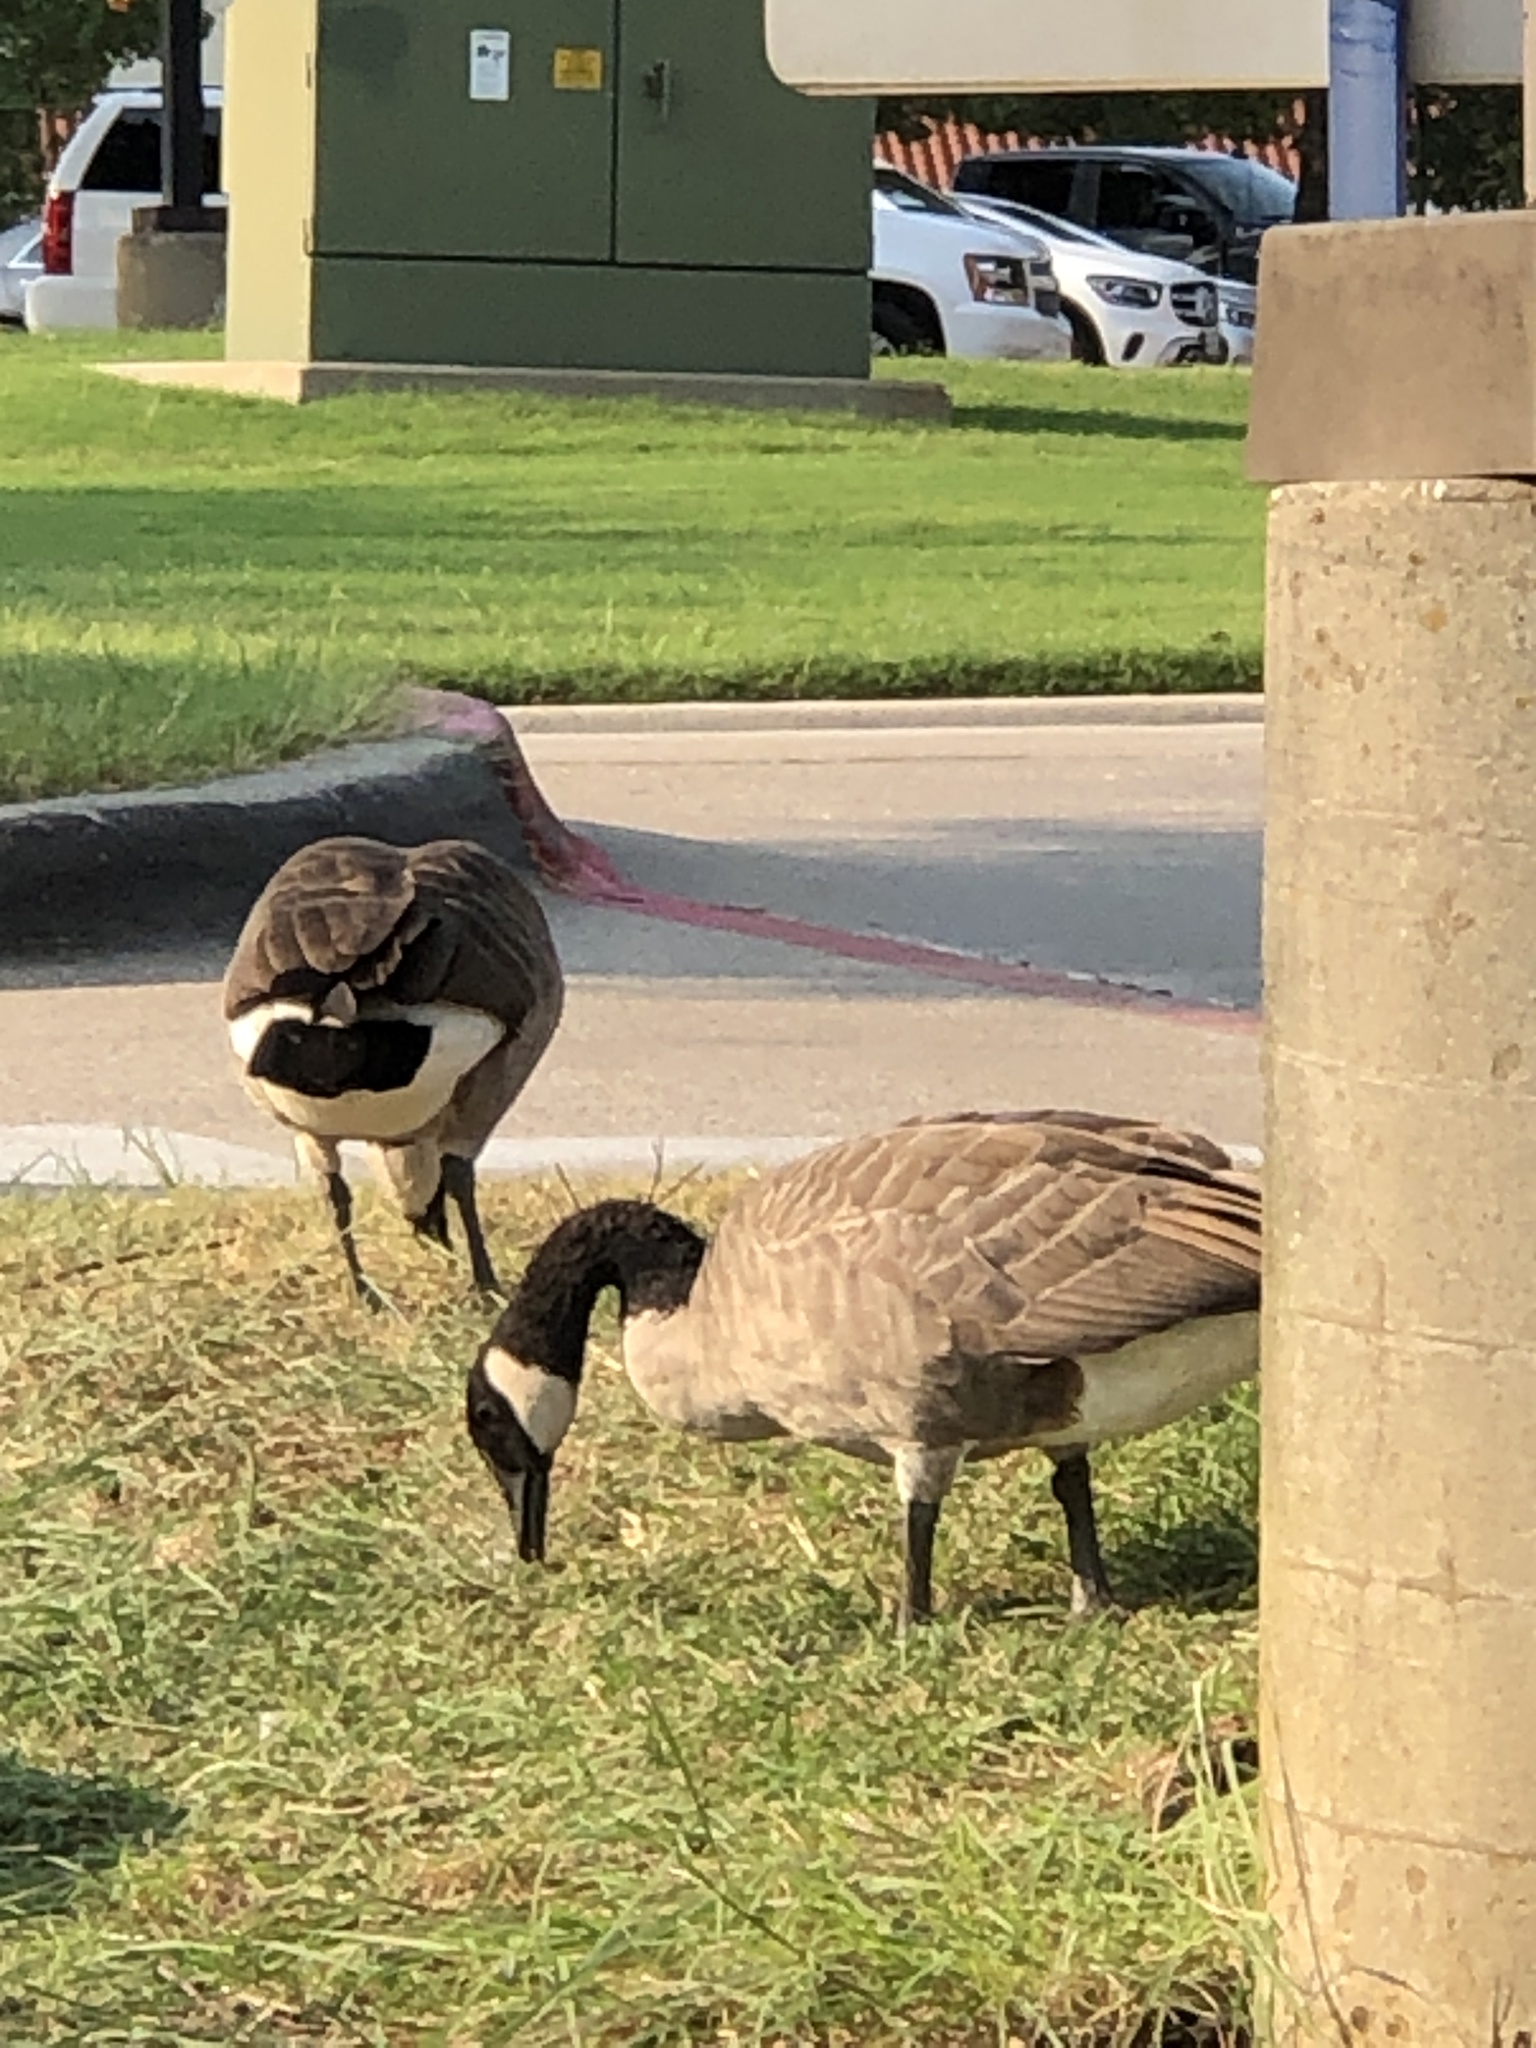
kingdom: Animalia
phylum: Chordata
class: Aves
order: Anseriformes
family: Anatidae
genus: Branta
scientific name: Branta canadensis
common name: Canada goose
